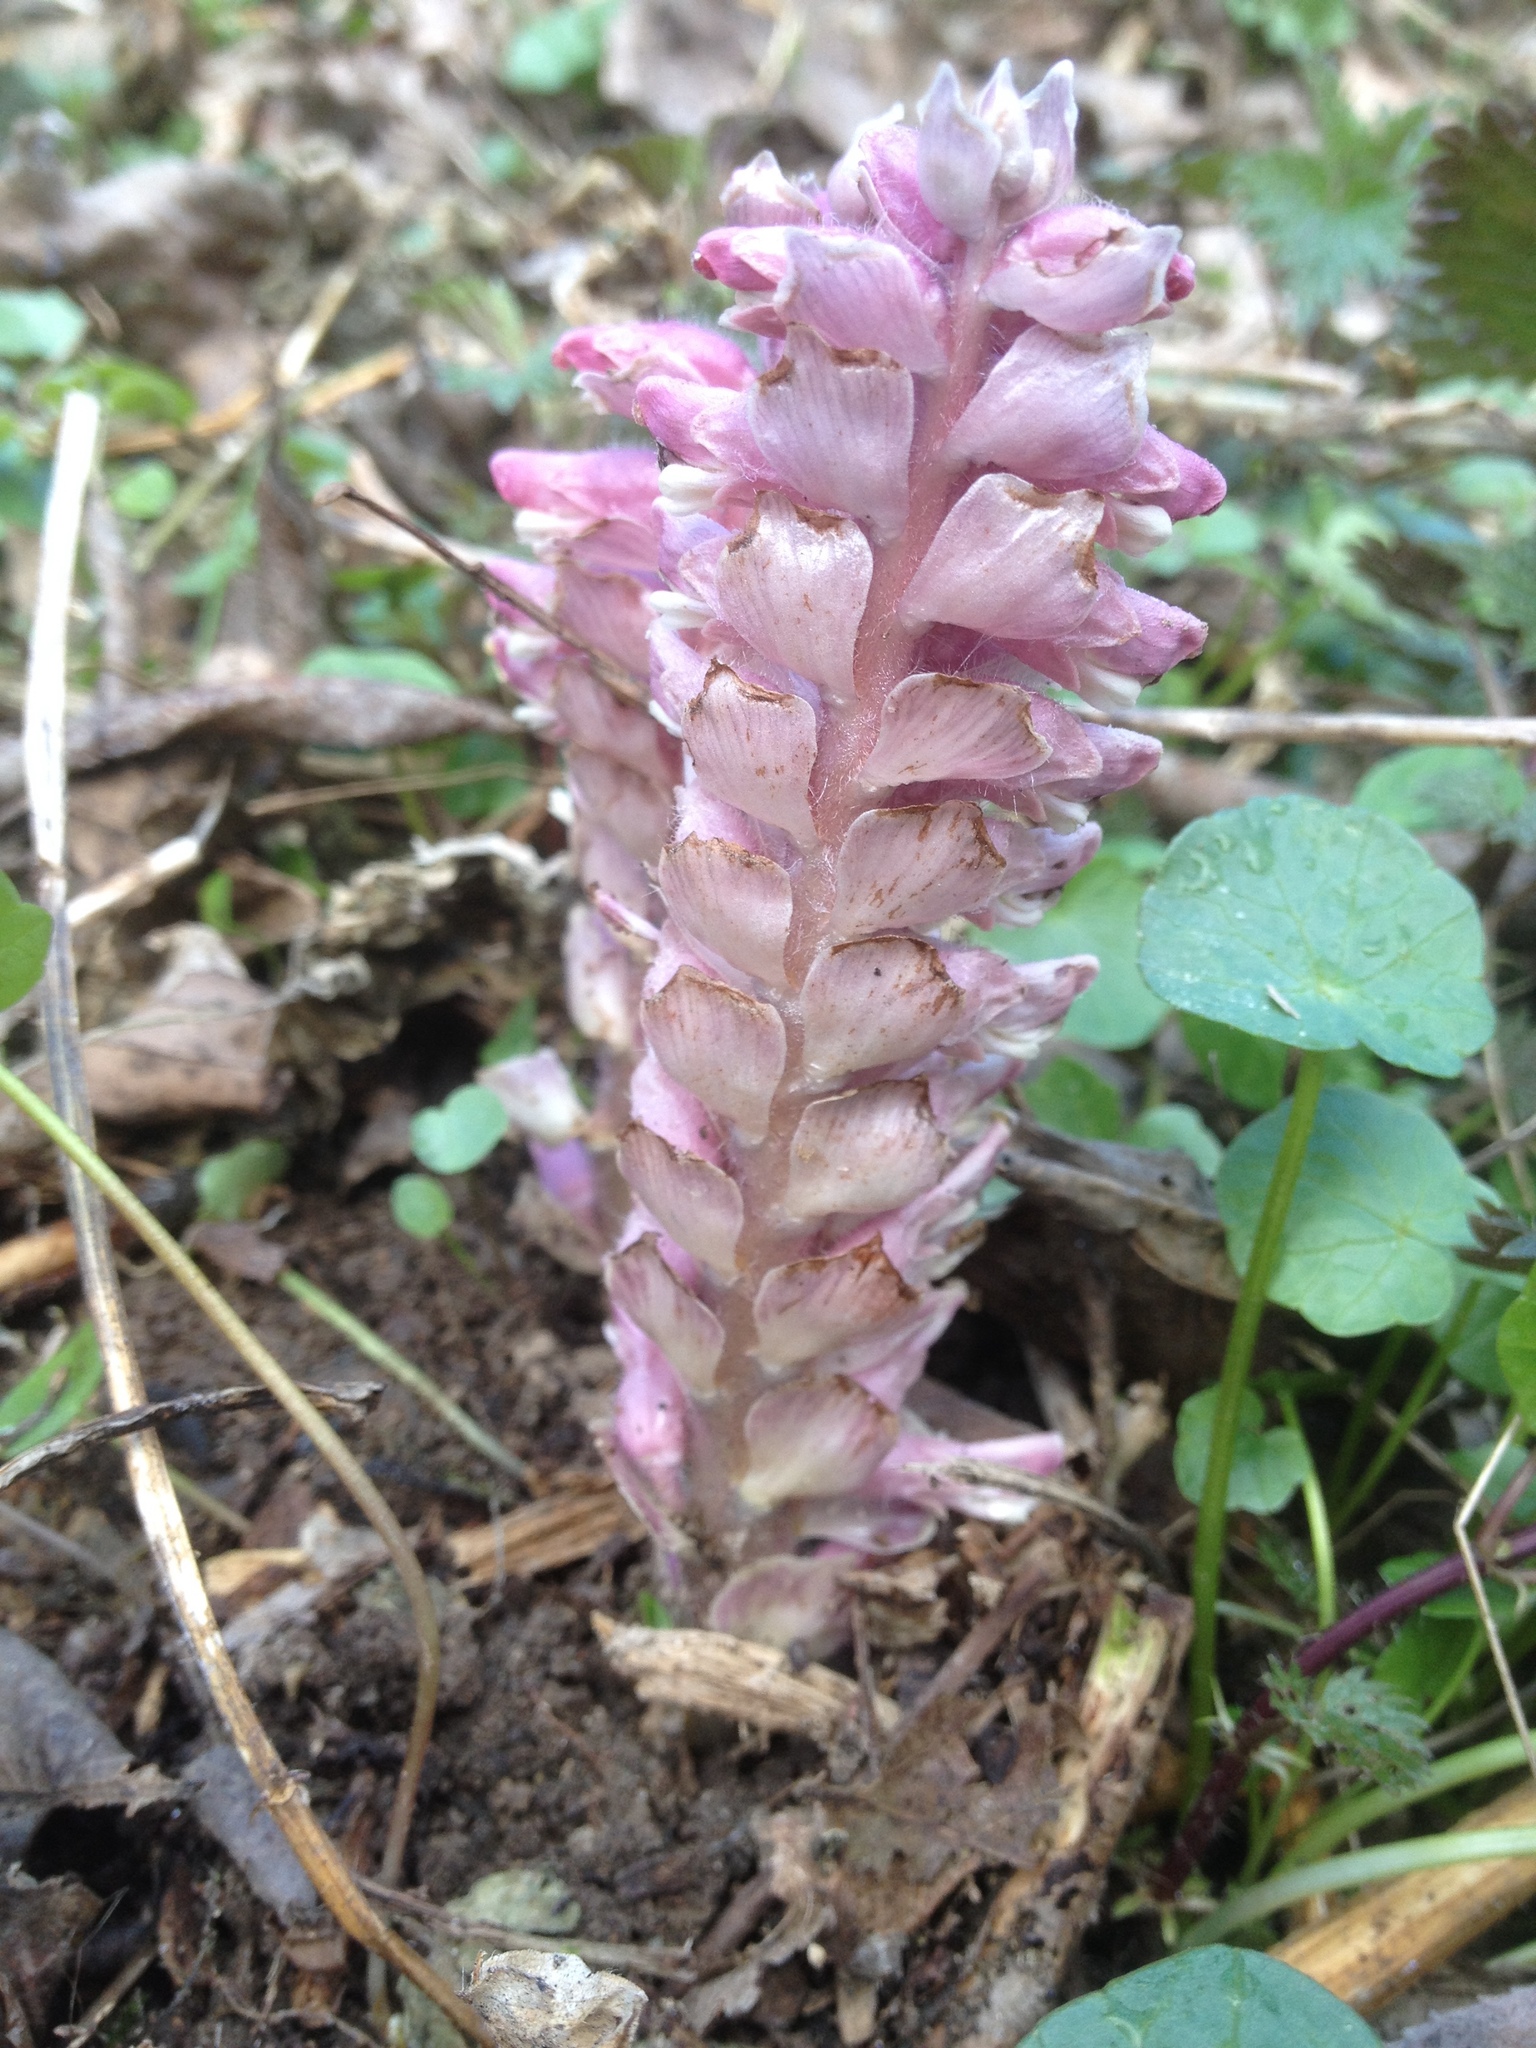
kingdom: Plantae
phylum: Tracheophyta
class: Magnoliopsida
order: Lamiales
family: Orobanchaceae
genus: Lathraea
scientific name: Lathraea squamaria
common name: Toothwort
